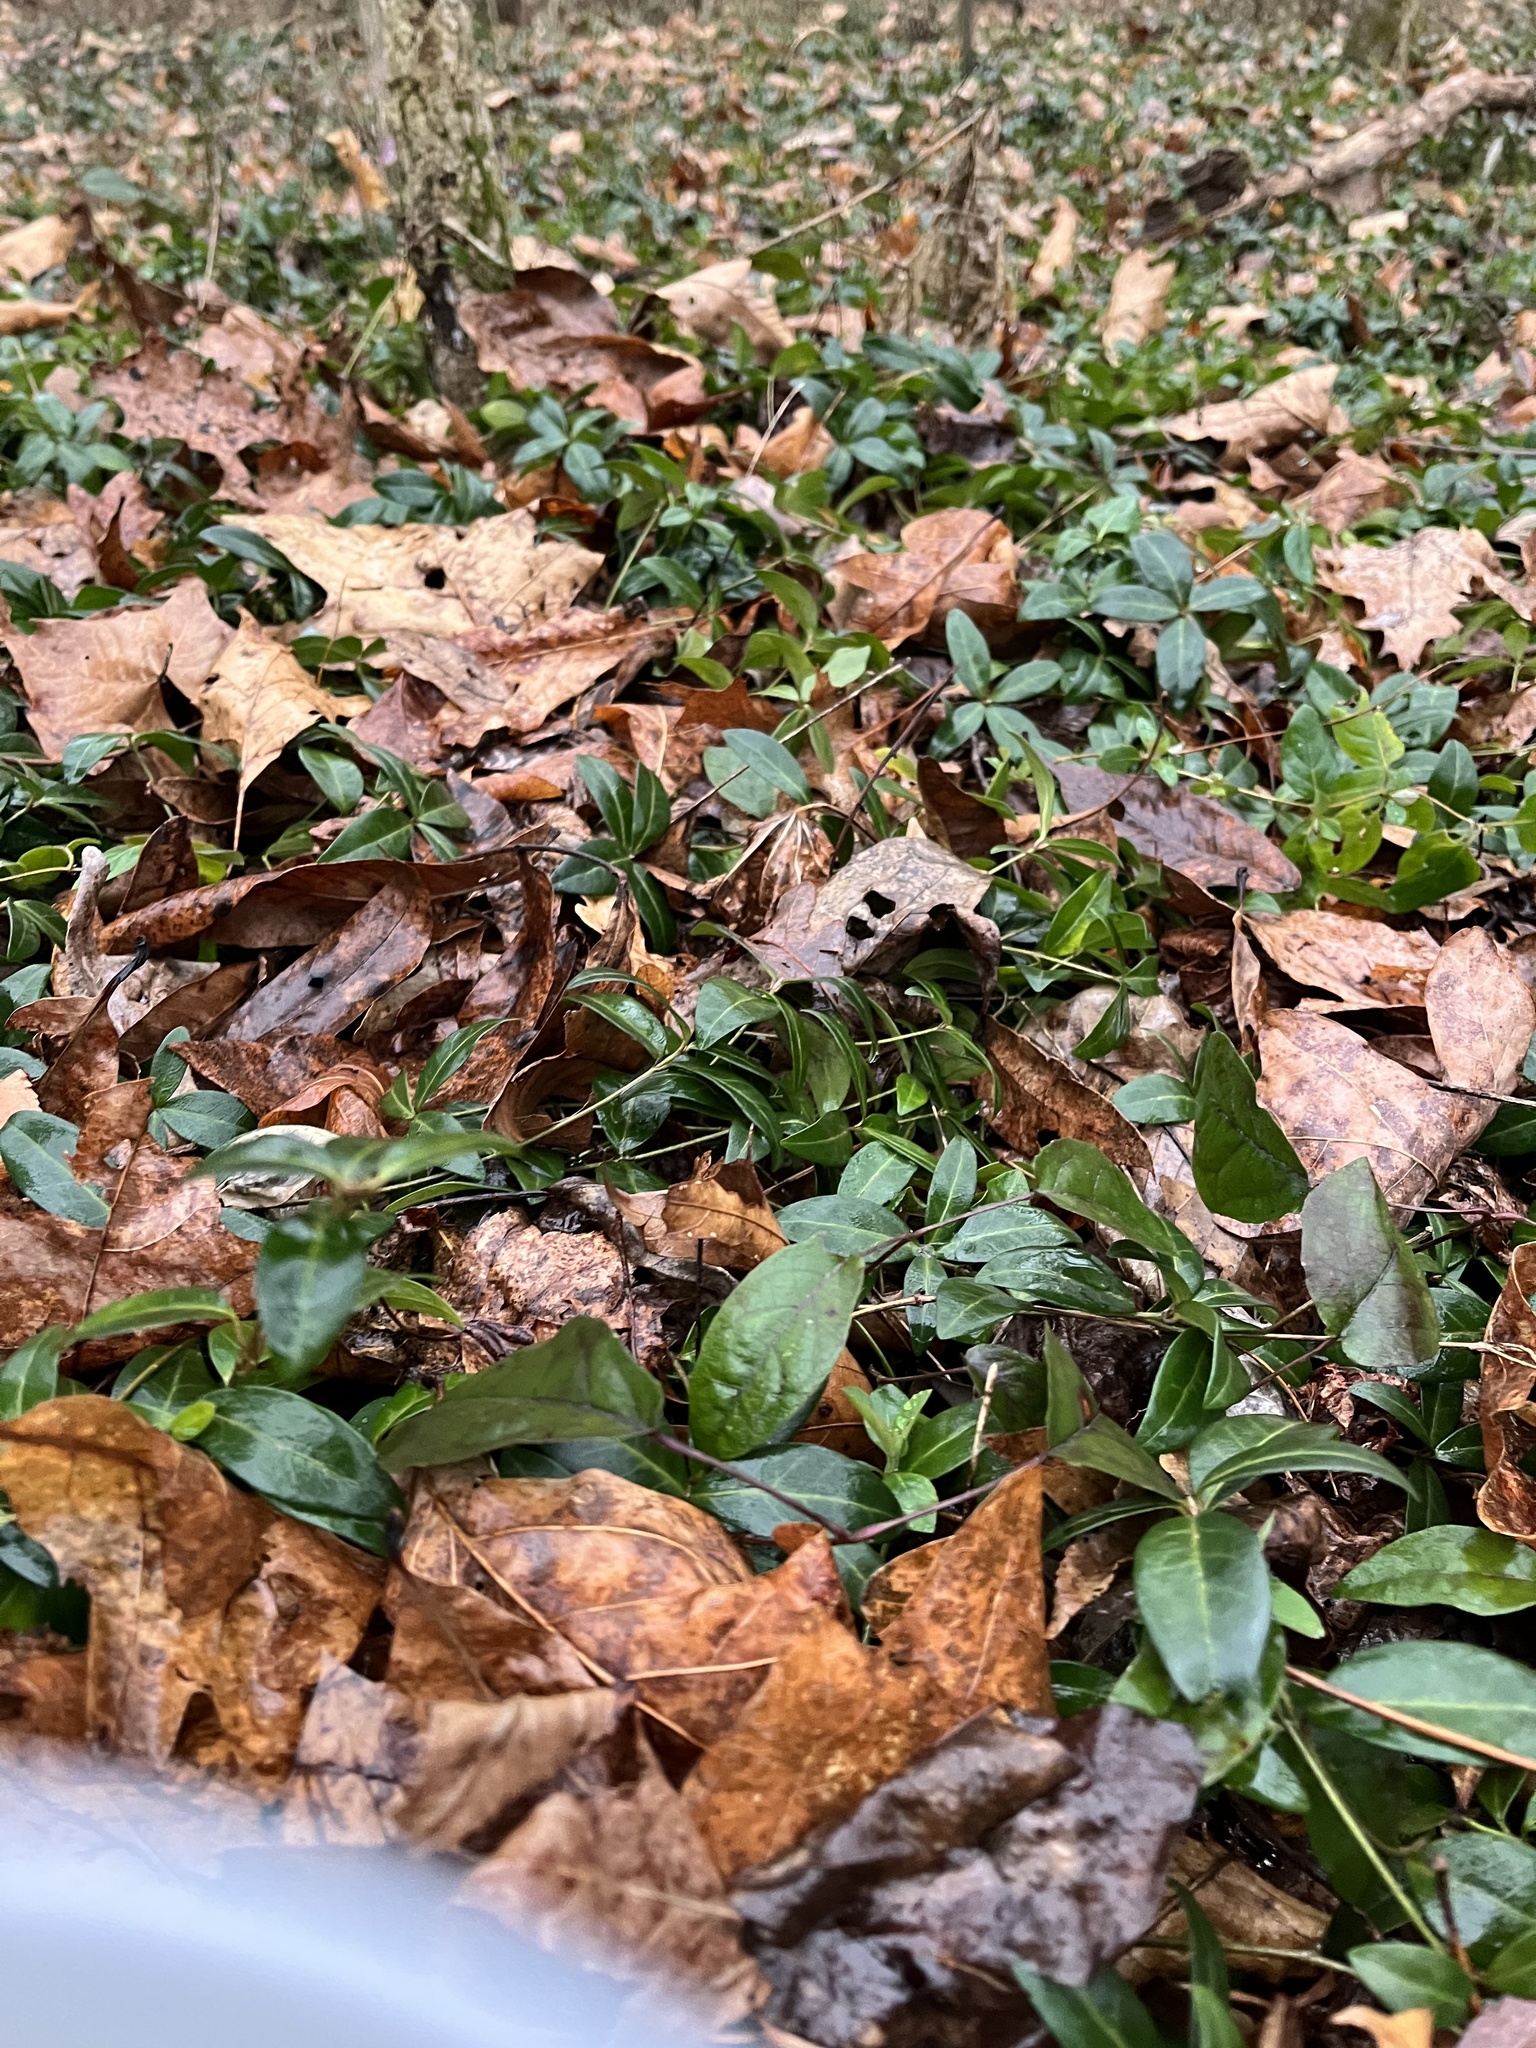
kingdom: Plantae
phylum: Tracheophyta
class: Magnoliopsida
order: Gentianales
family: Apocynaceae
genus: Vinca
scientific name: Vinca minor
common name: Lesser periwinkle
